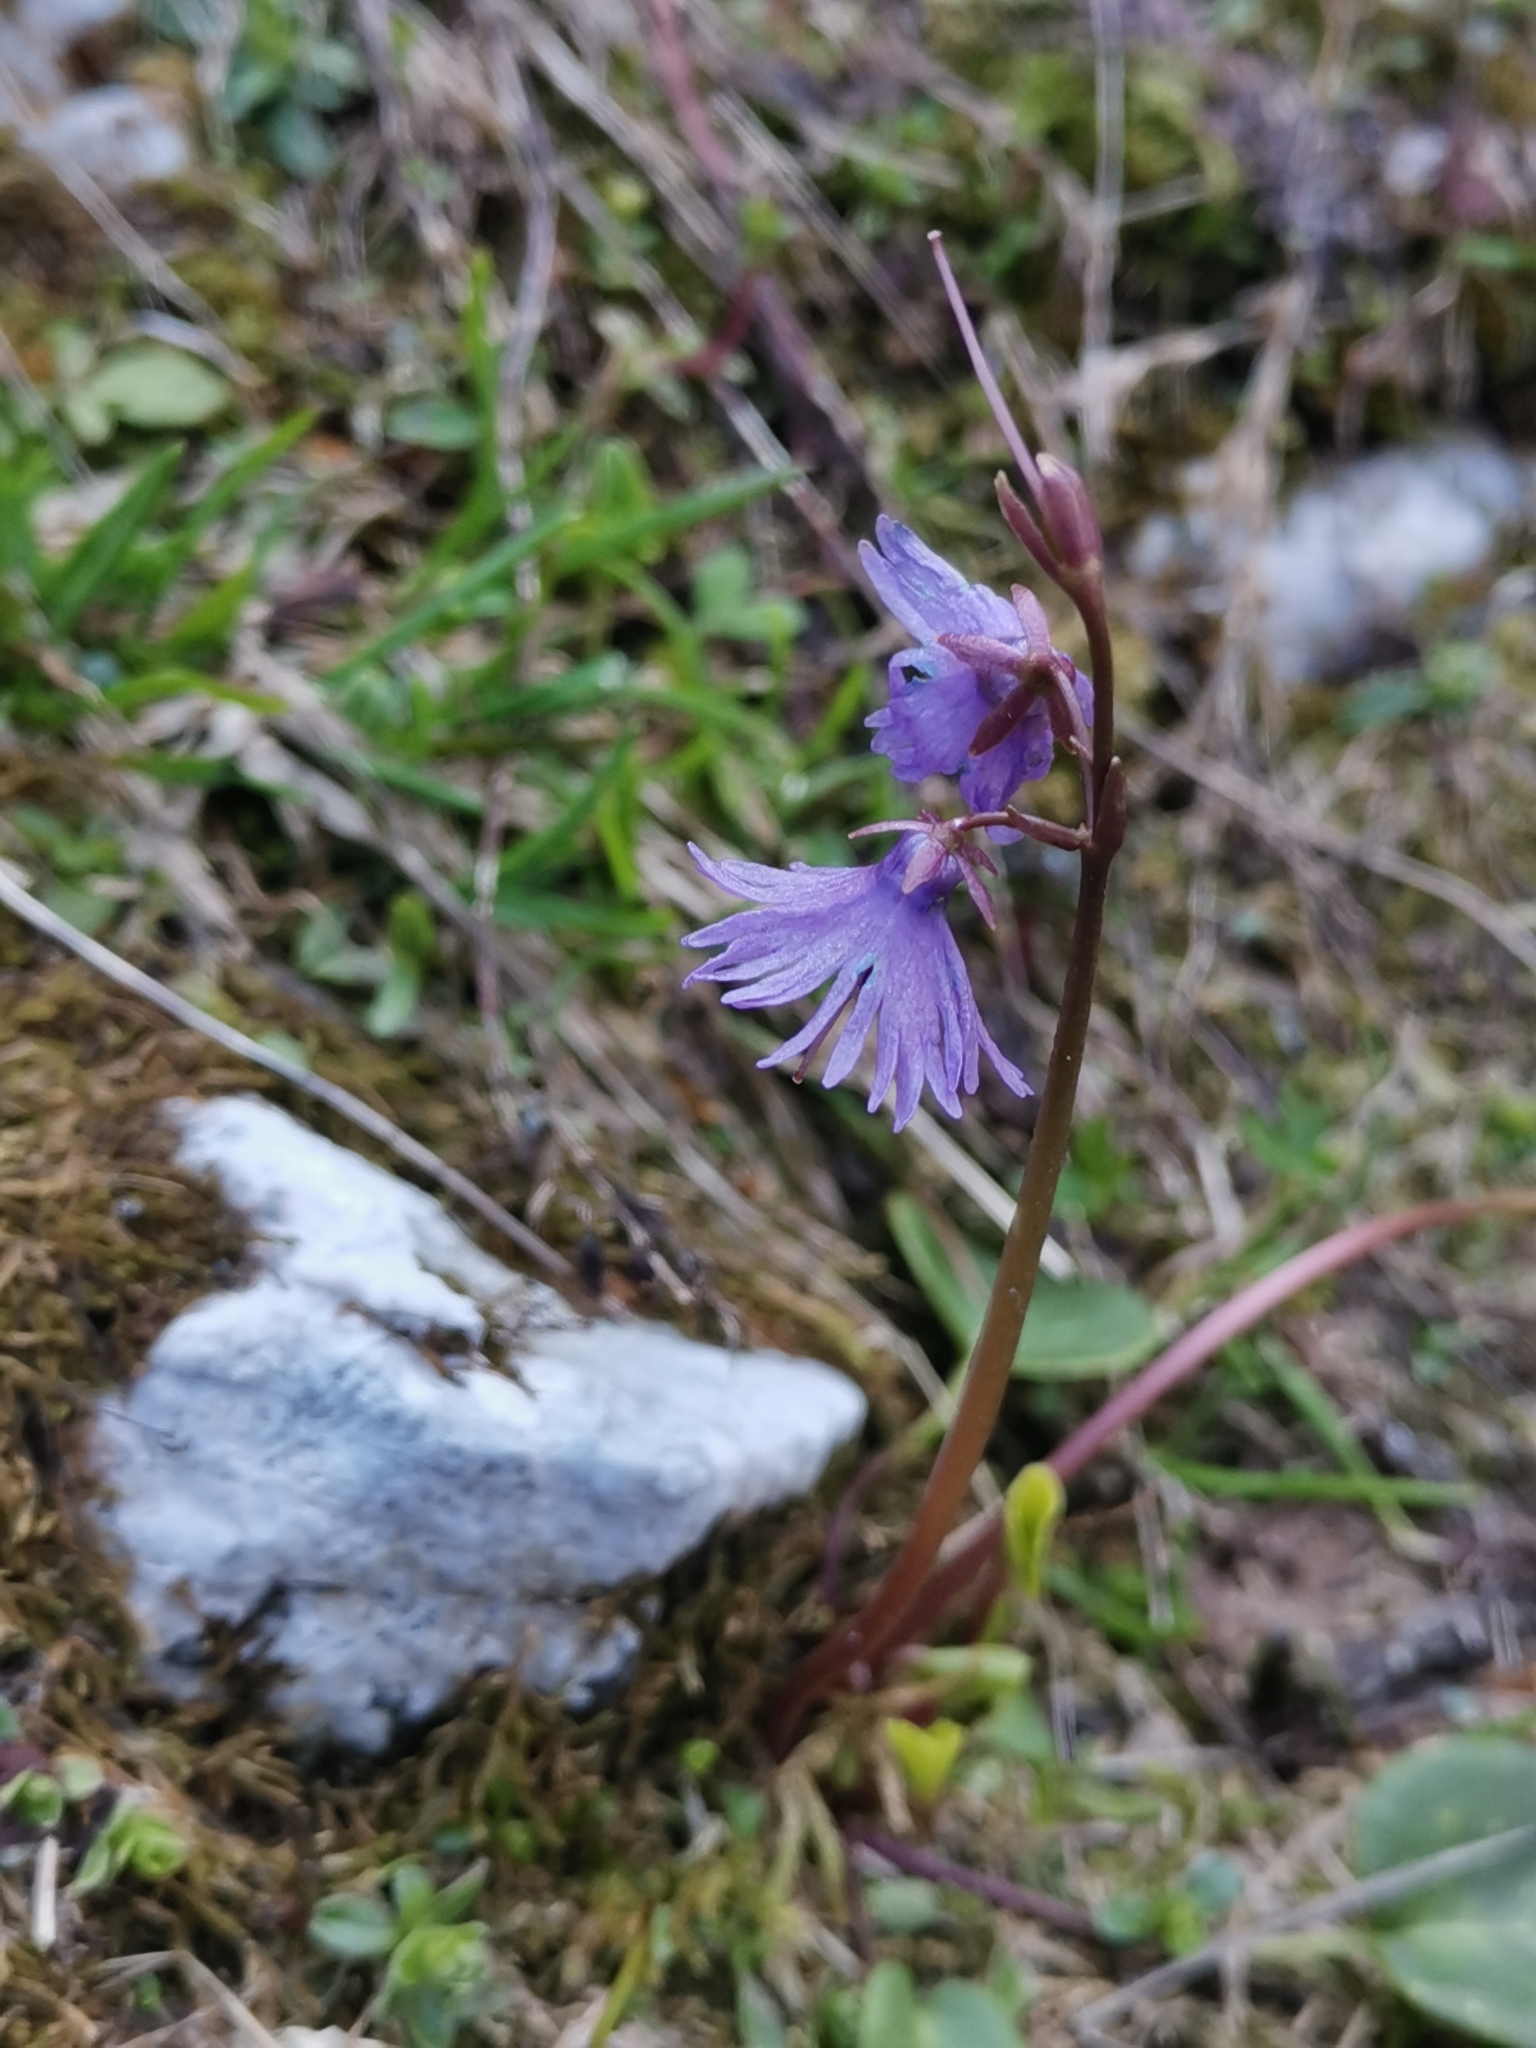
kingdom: Plantae
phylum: Tracheophyta
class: Magnoliopsida
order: Ericales
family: Primulaceae
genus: Soldanella
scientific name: Soldanella alpina
